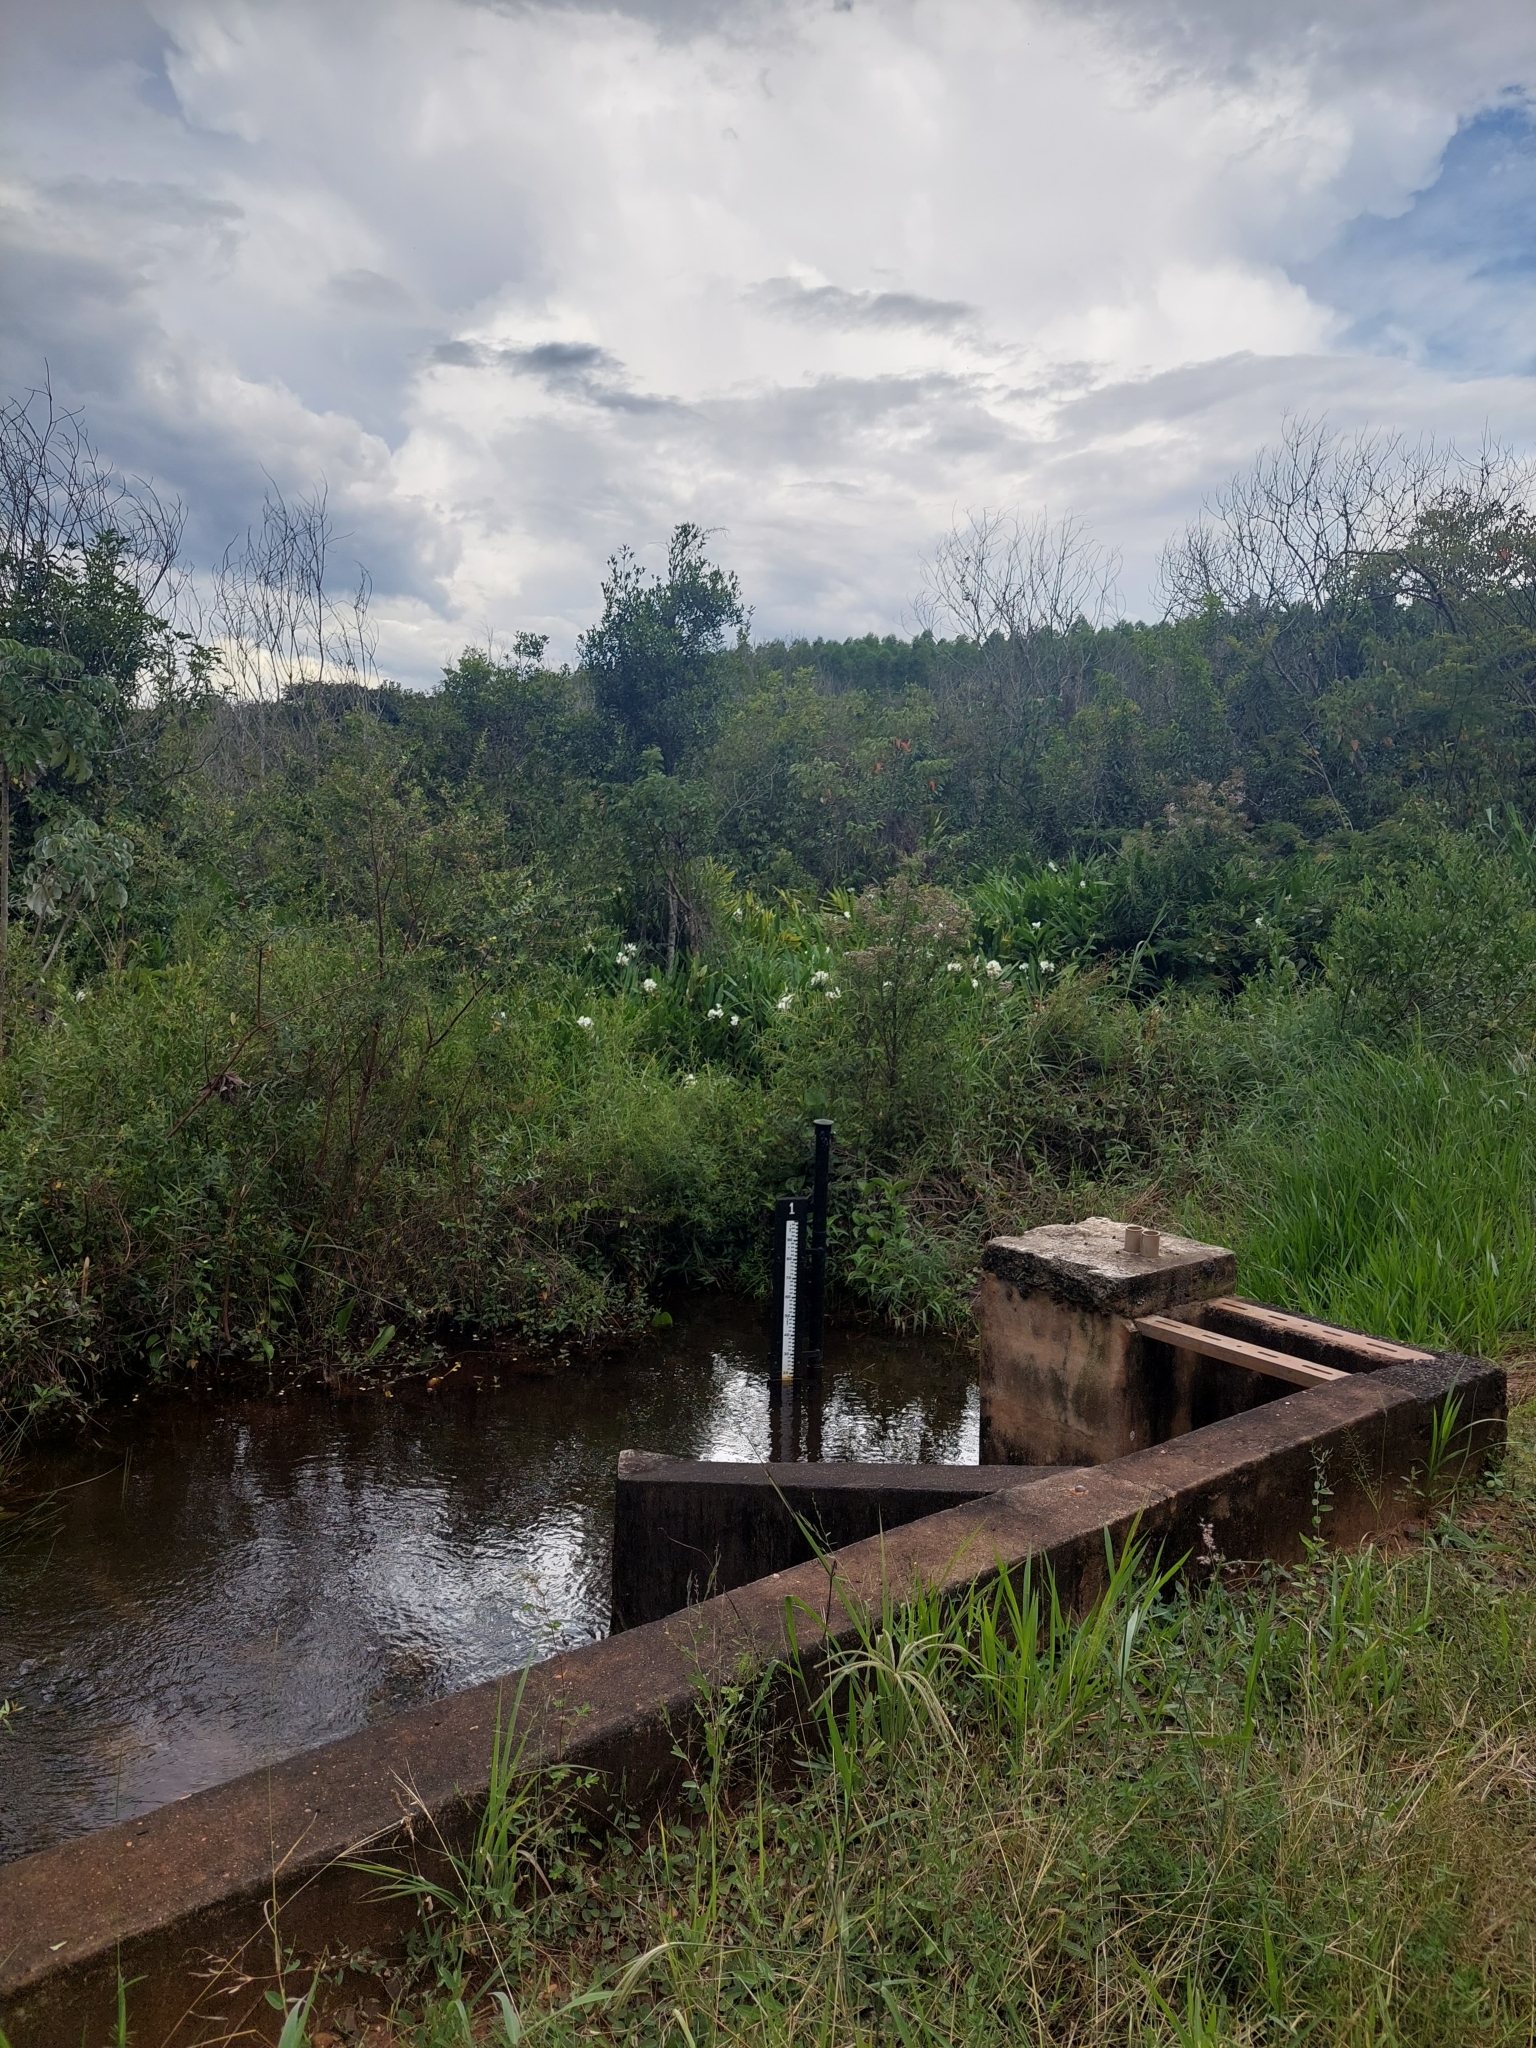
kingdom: Plantae
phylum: Tracheophyta
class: Liliopsida
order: Zingiberales
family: Zingiberaceae
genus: Hedychium
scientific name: Hedychium coronarium
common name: White garland-lily
